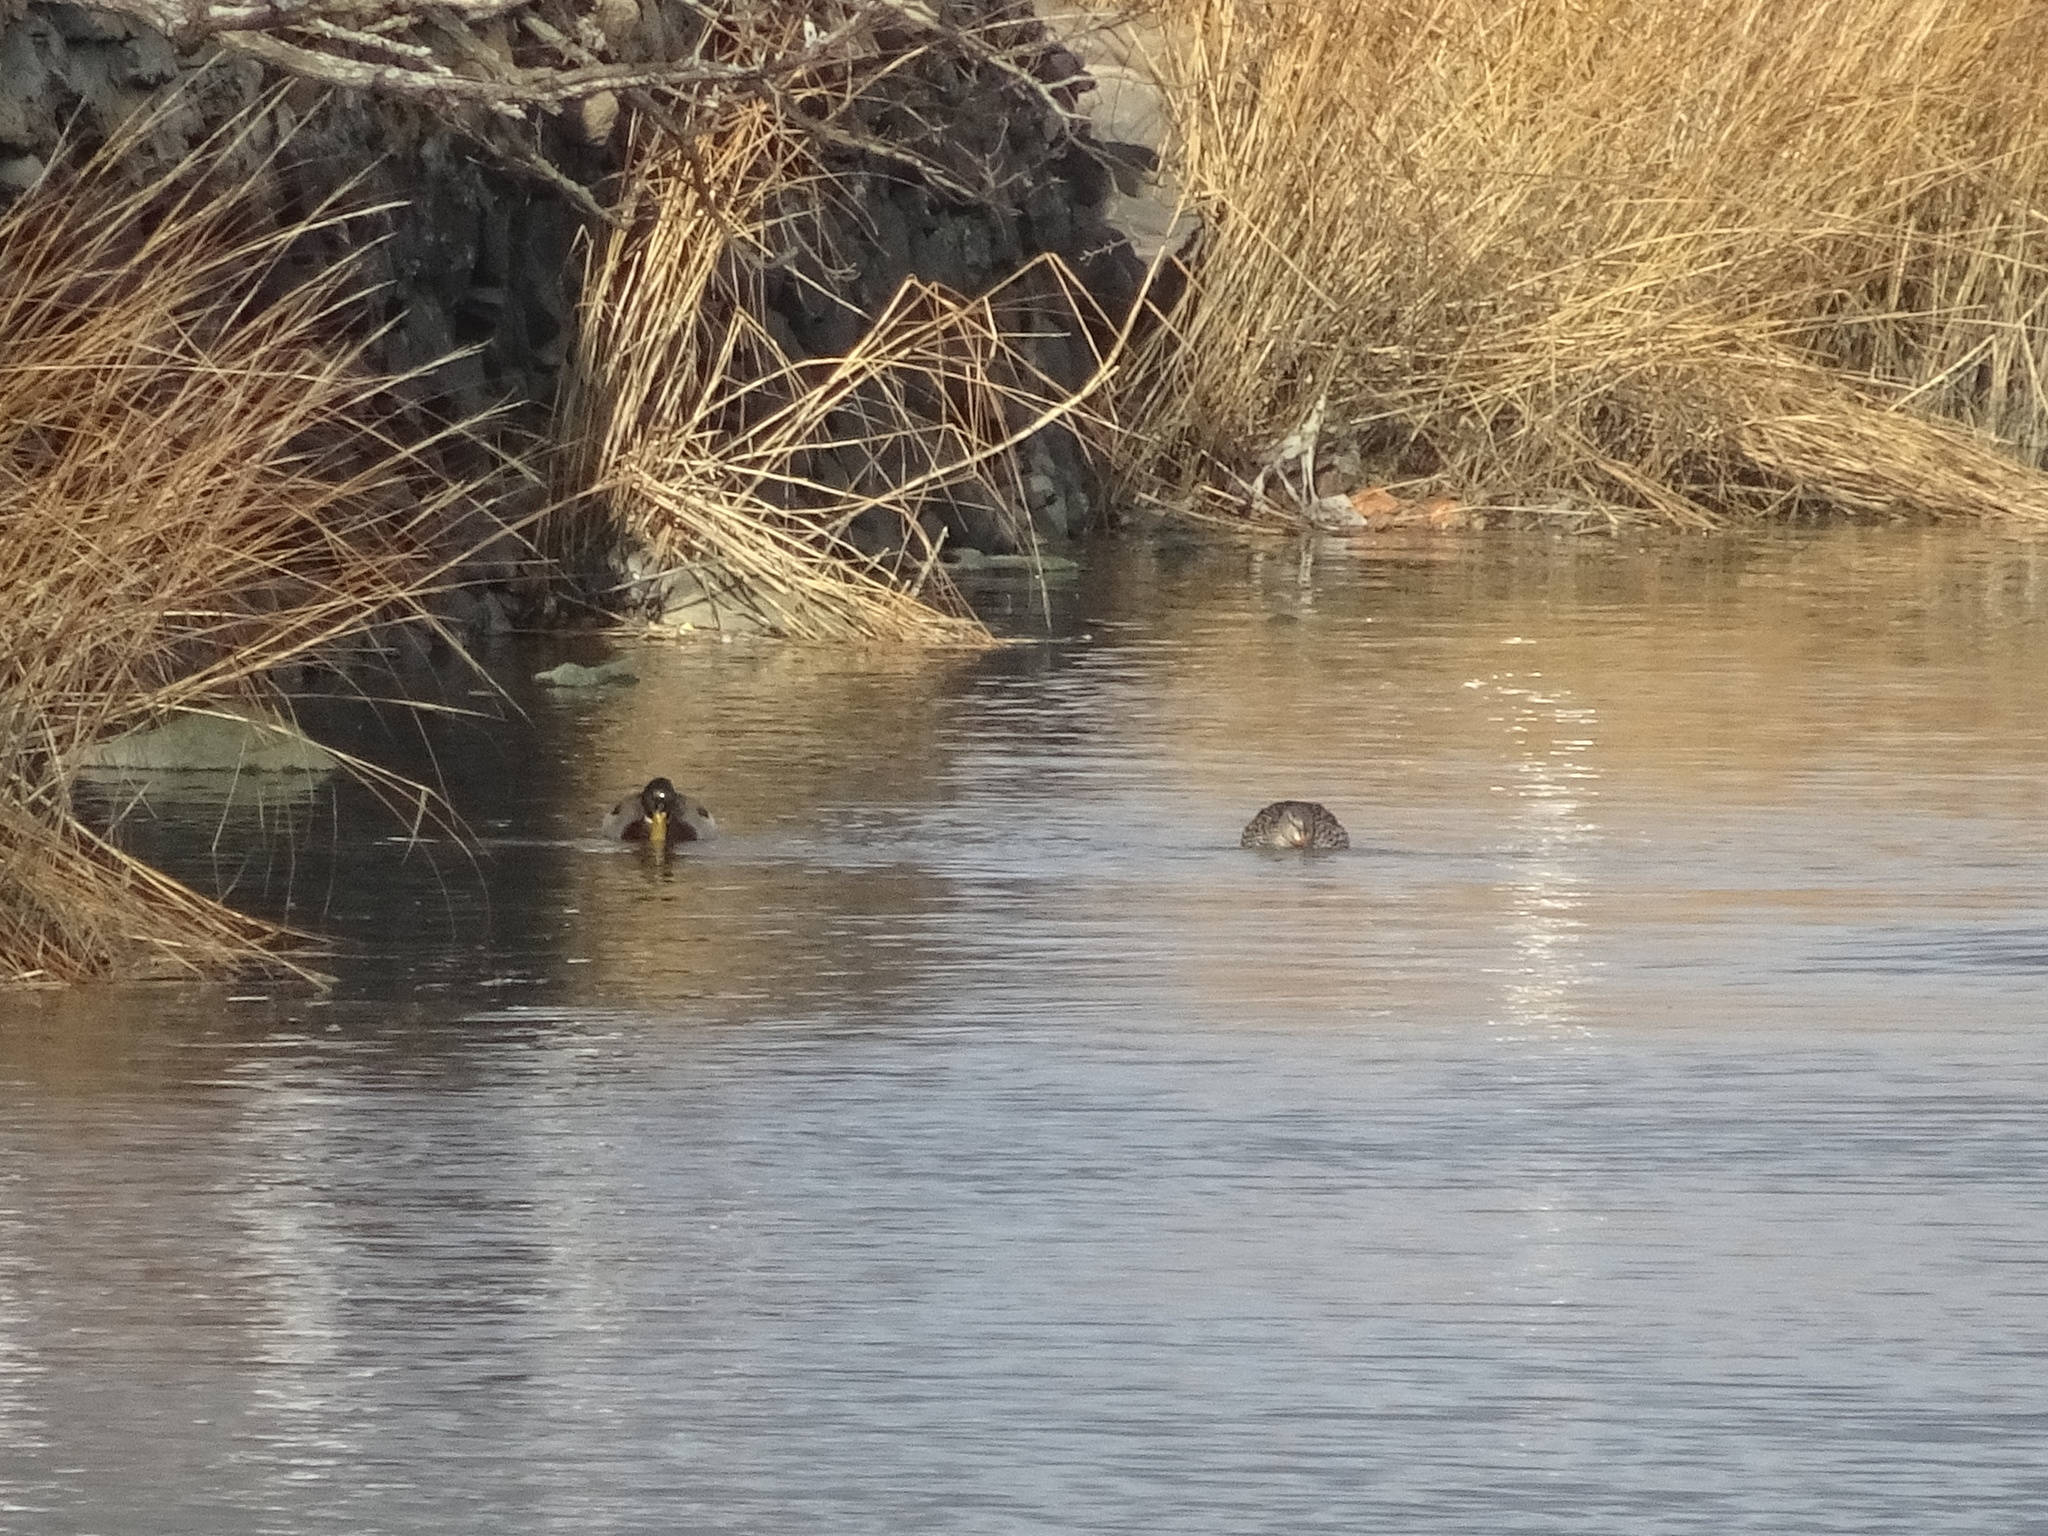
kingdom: Animalia
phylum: Chordata
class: Aves
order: Anseriformes
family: Anatidae
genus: Anas
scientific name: Anas platyrhynchos
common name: Mallard
